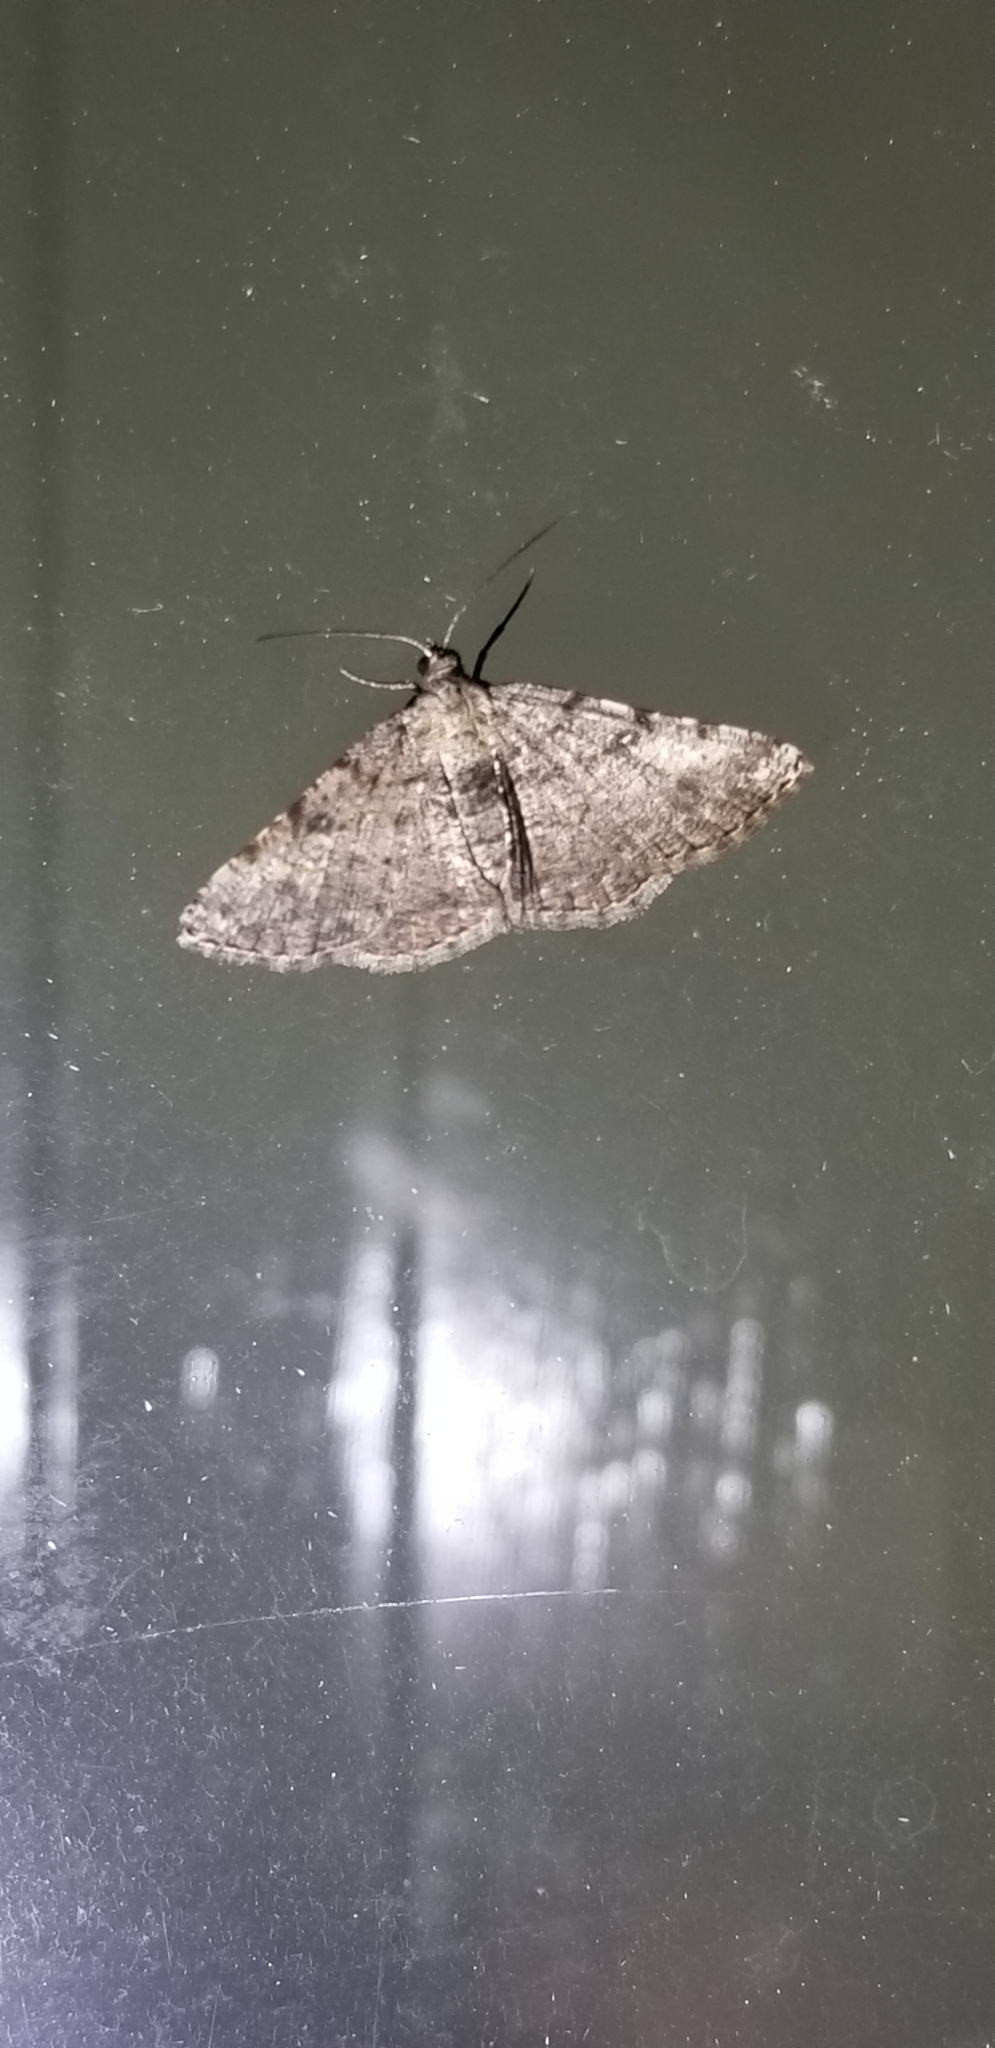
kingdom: Animalia
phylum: Arthropoda
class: Insecta
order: Lepidoptera
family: Geometridae
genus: Digrammia
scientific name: Digrammia gnophosaria
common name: Hollow-spotted angle
